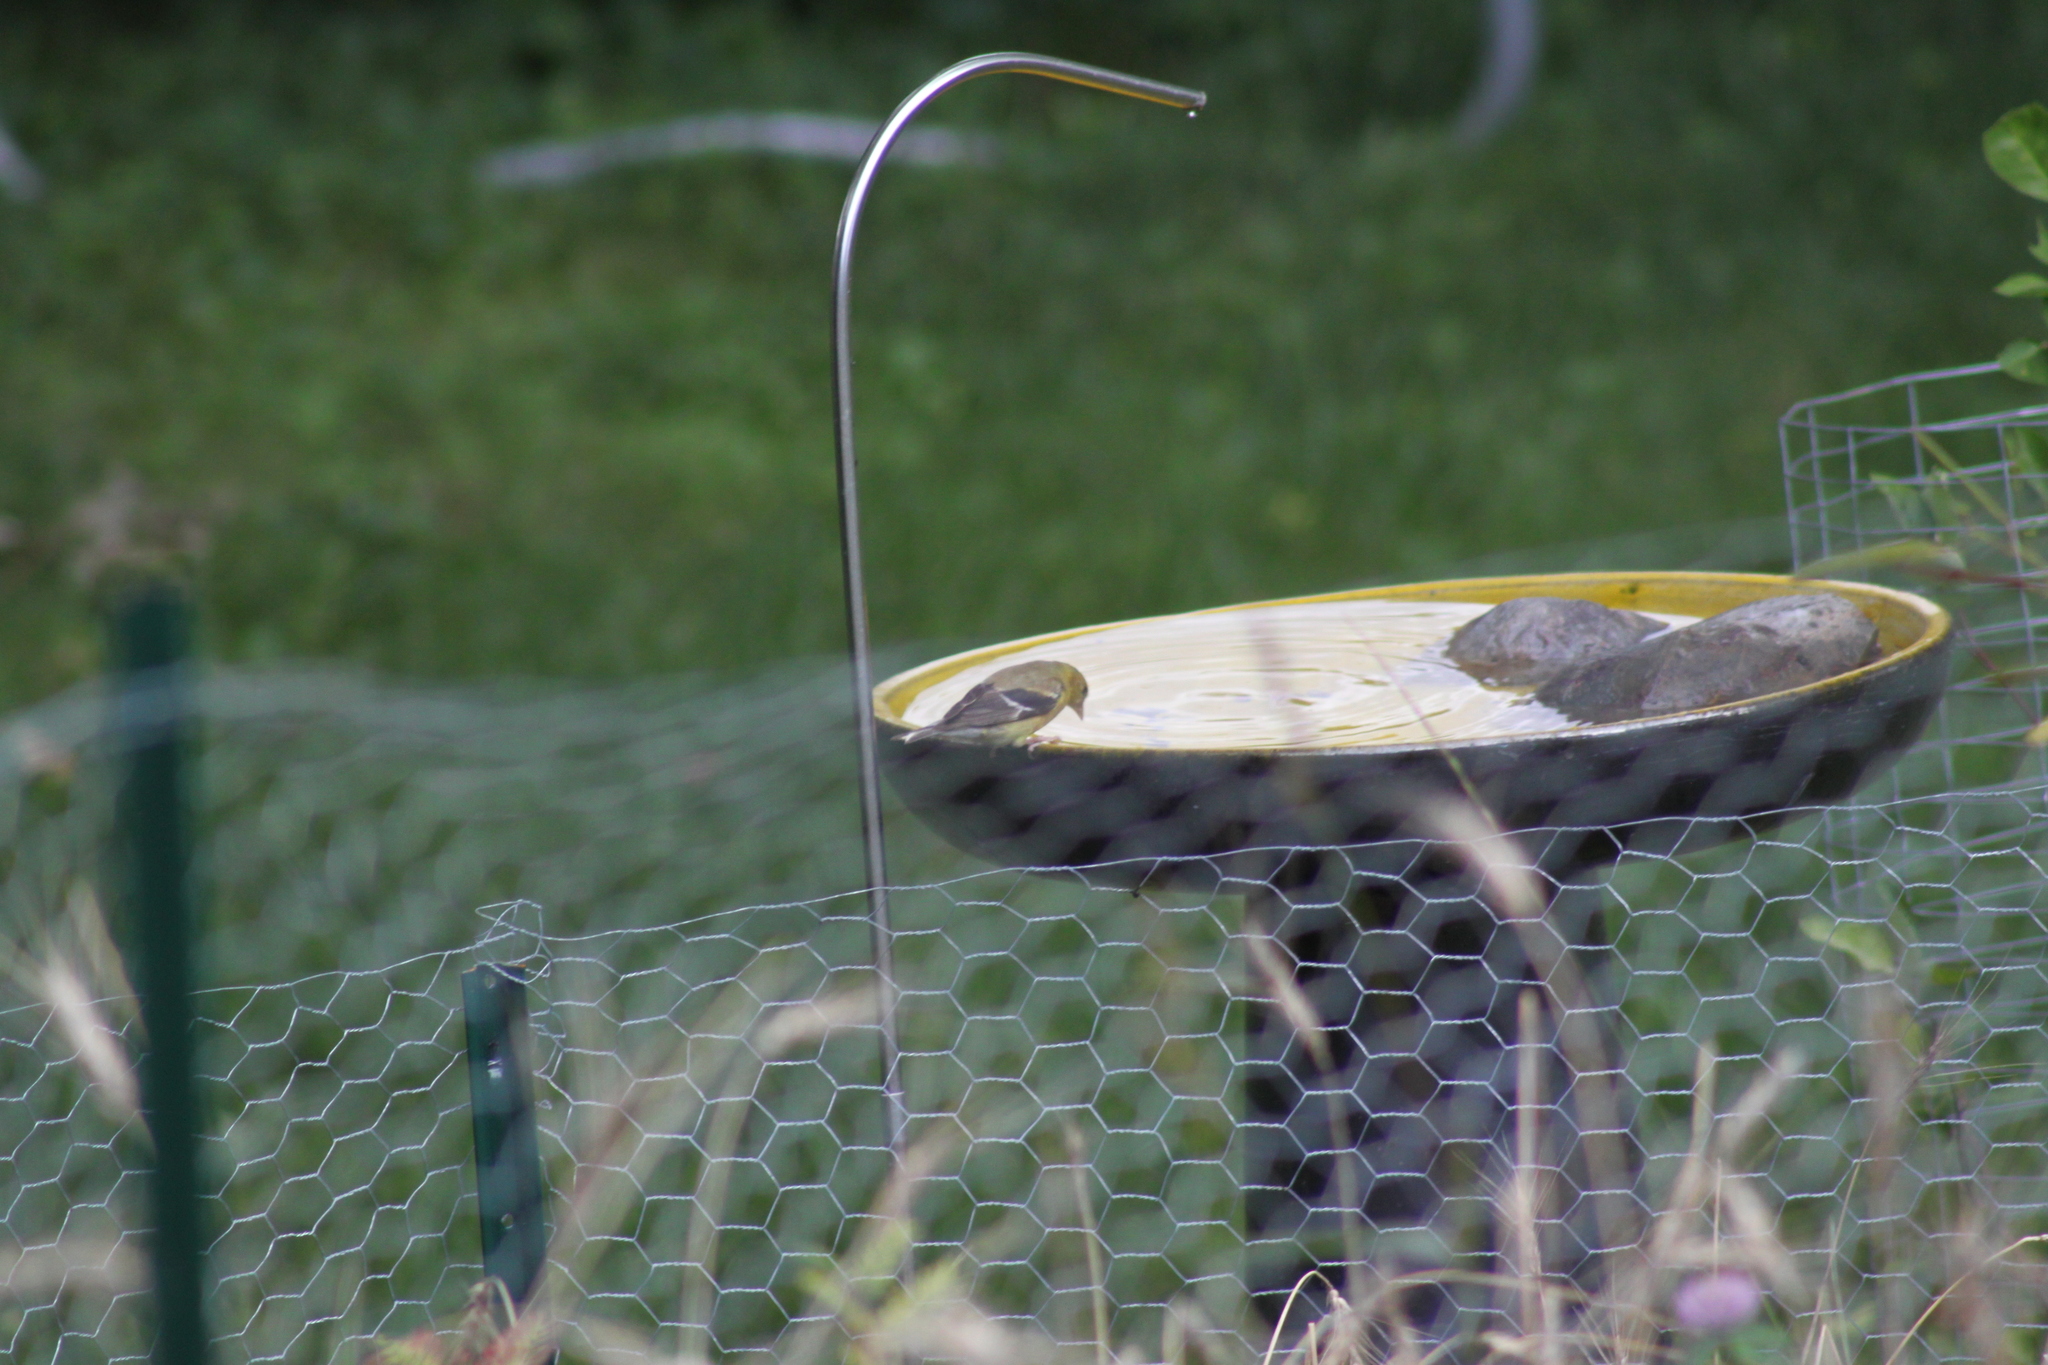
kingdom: Animalia
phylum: Chordata
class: Aves
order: Passeriformes
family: Fringillidae
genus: Spinus
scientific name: Spinus tristis
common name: American goldfinch
